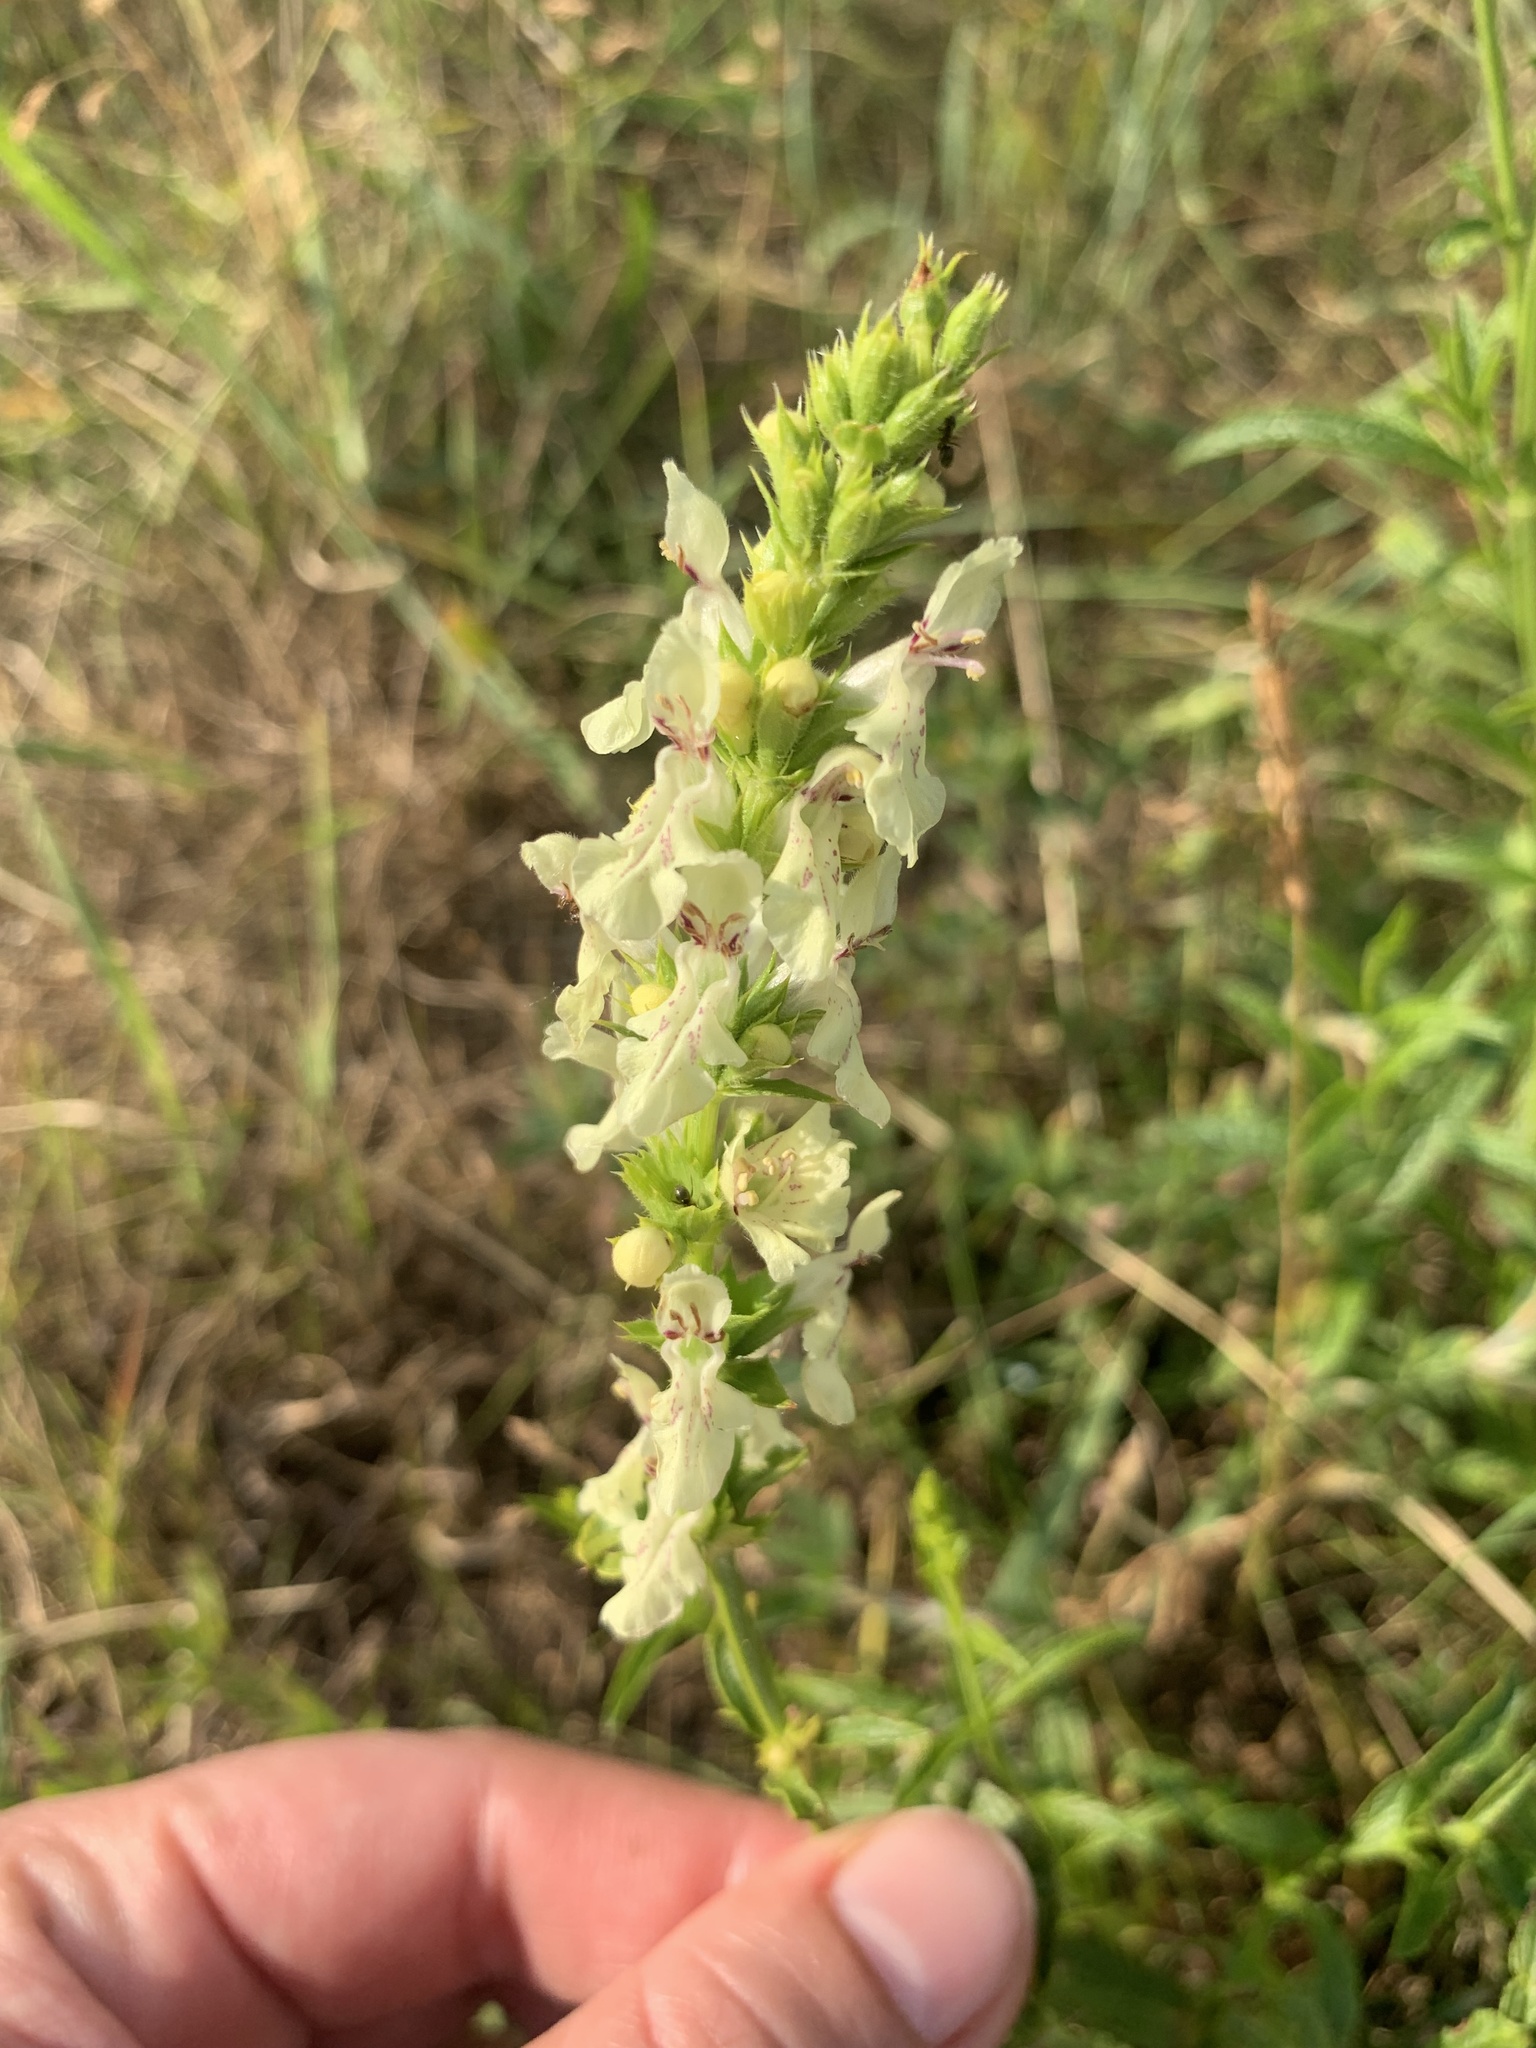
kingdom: Plantae
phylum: Tracheophyta
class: Magnoliopsida
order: Lamiales
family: Lamiaceae
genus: Stachys
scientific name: Stachys recta
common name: Perennial yellow-woundwort
